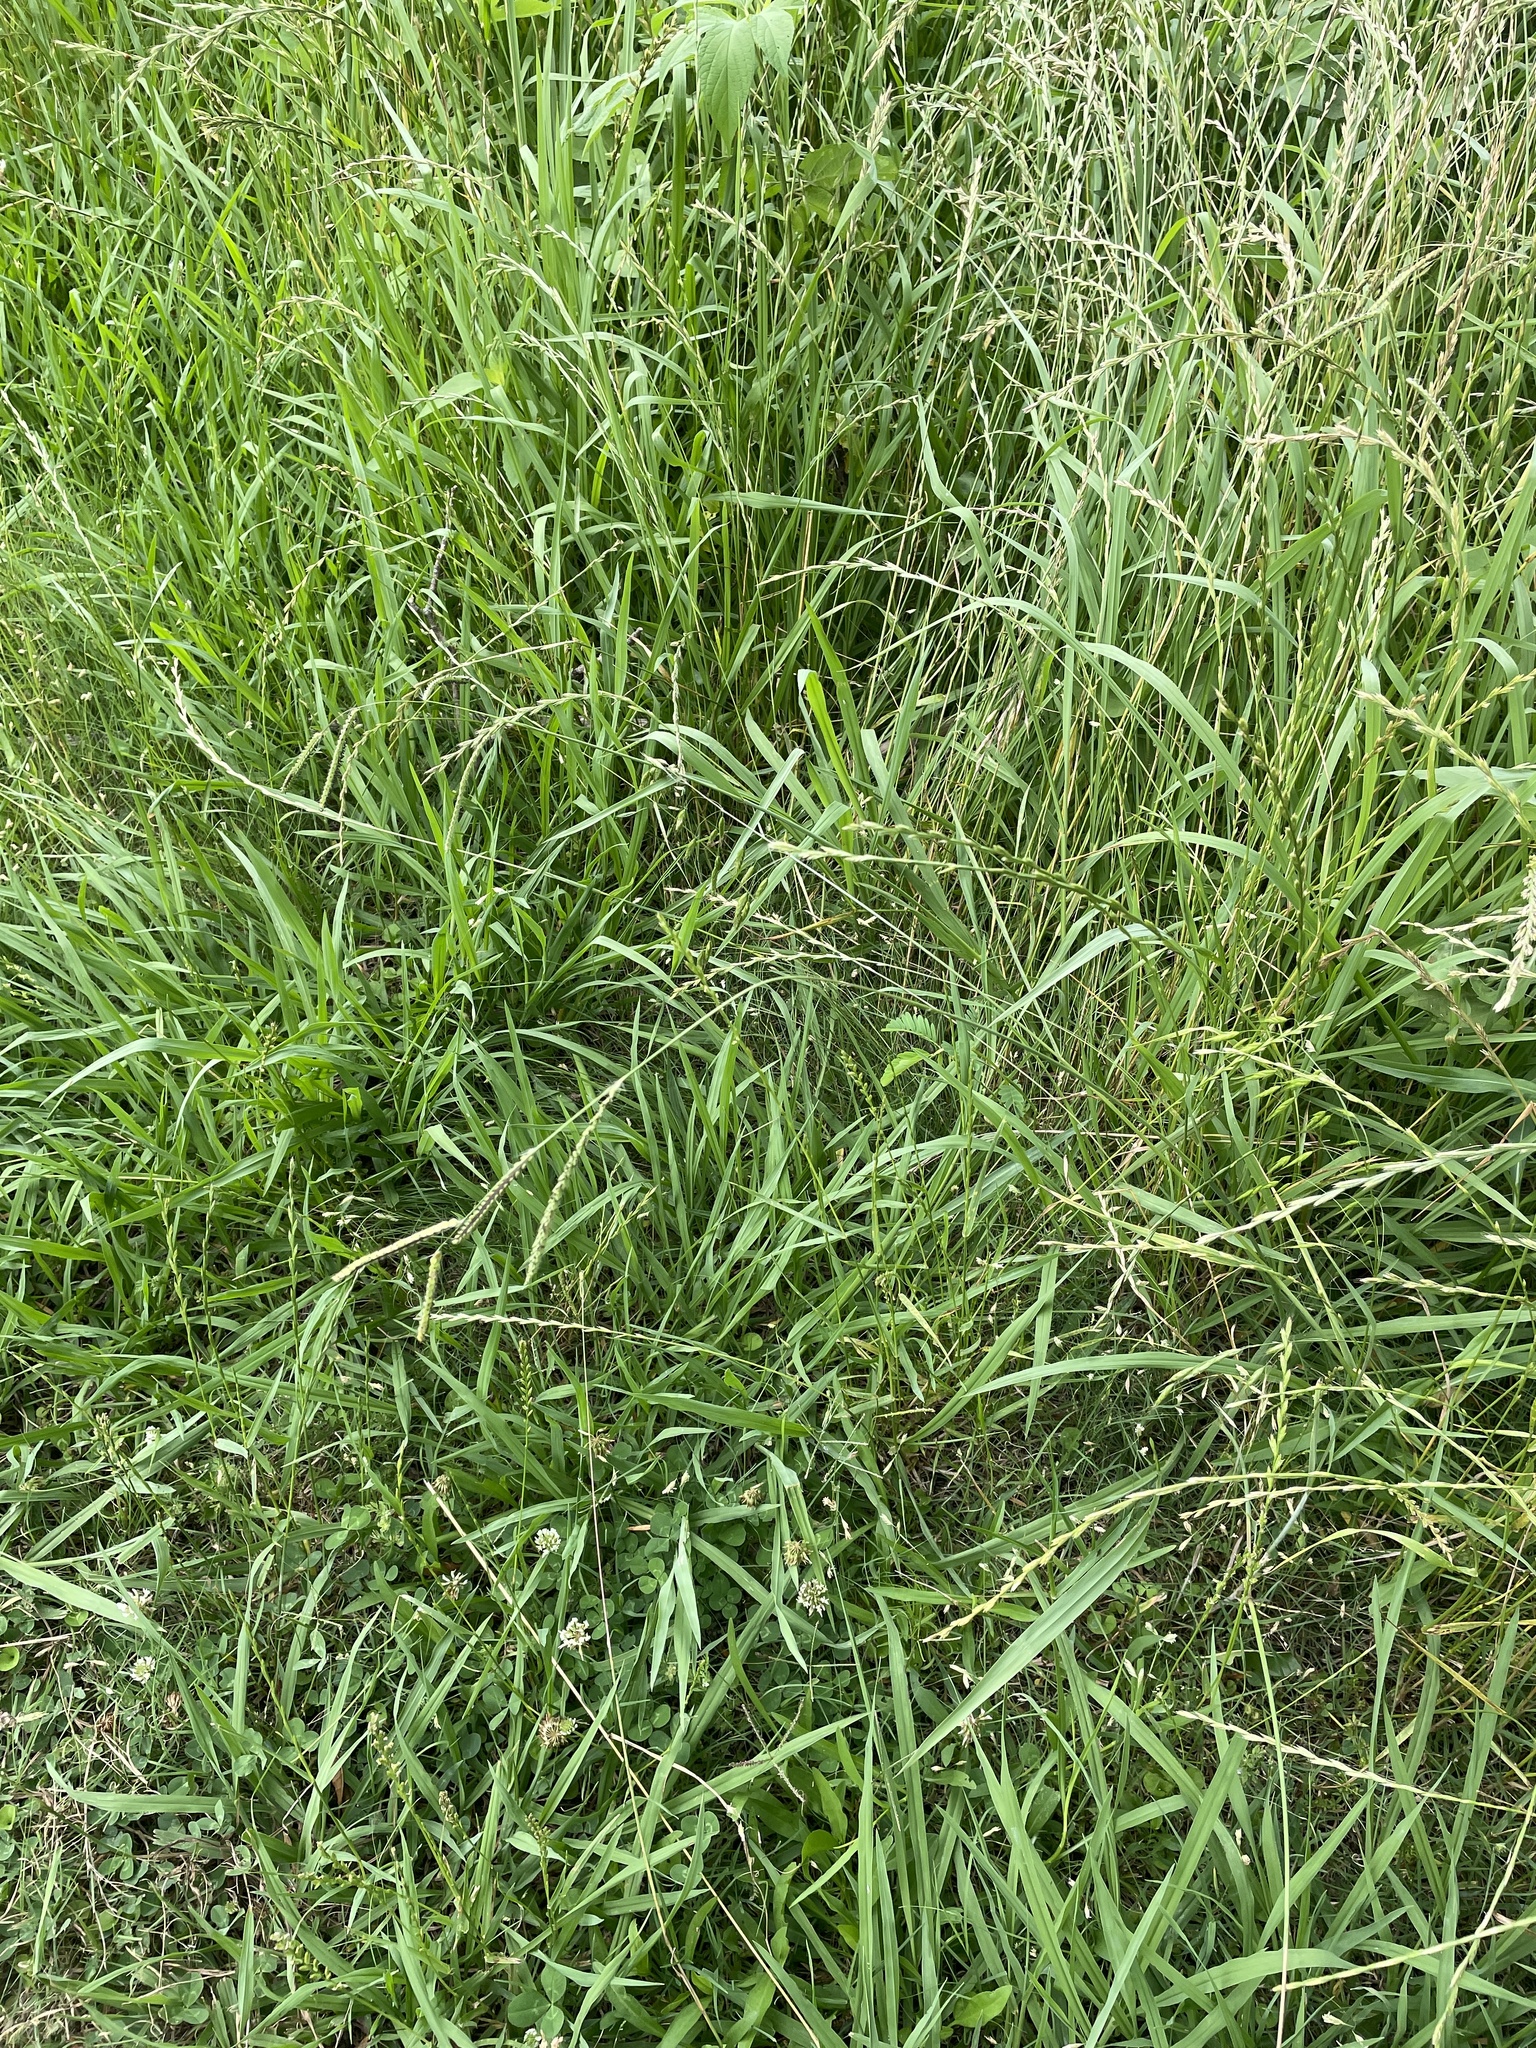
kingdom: Plantae
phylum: Tracheophyta
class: Liliopsida
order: Poales
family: Poaceae
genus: Paspalum
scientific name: Paspalum dilatatum
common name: Dallisgrass
